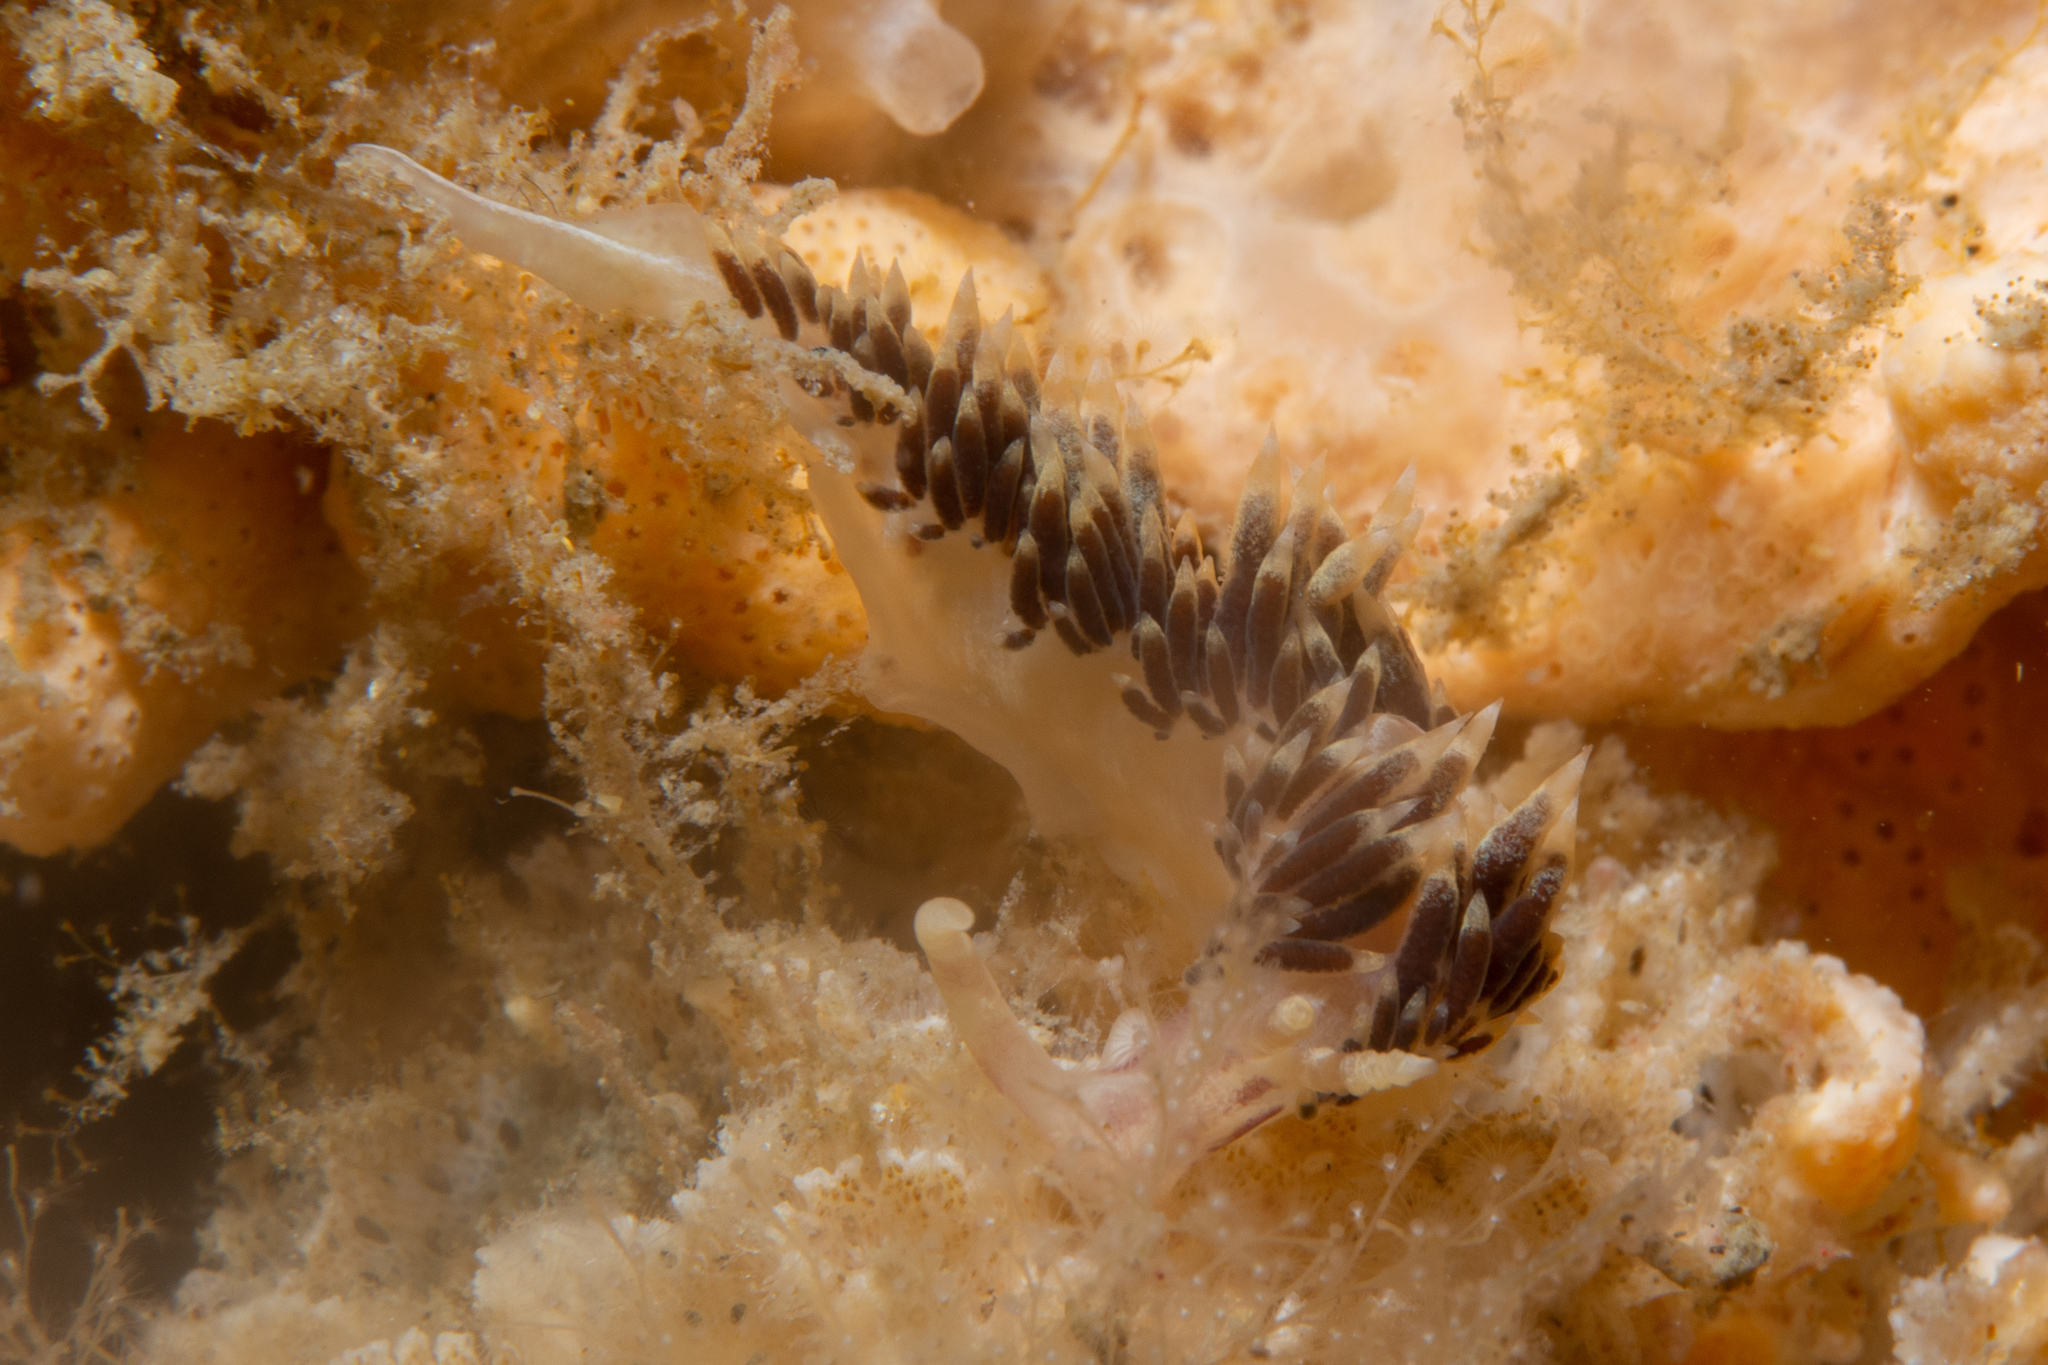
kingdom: Animalia
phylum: Mollusca
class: Gastropoda
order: Nudibranchia
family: Facelinidae
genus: Facelina
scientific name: Facelina newcombi
